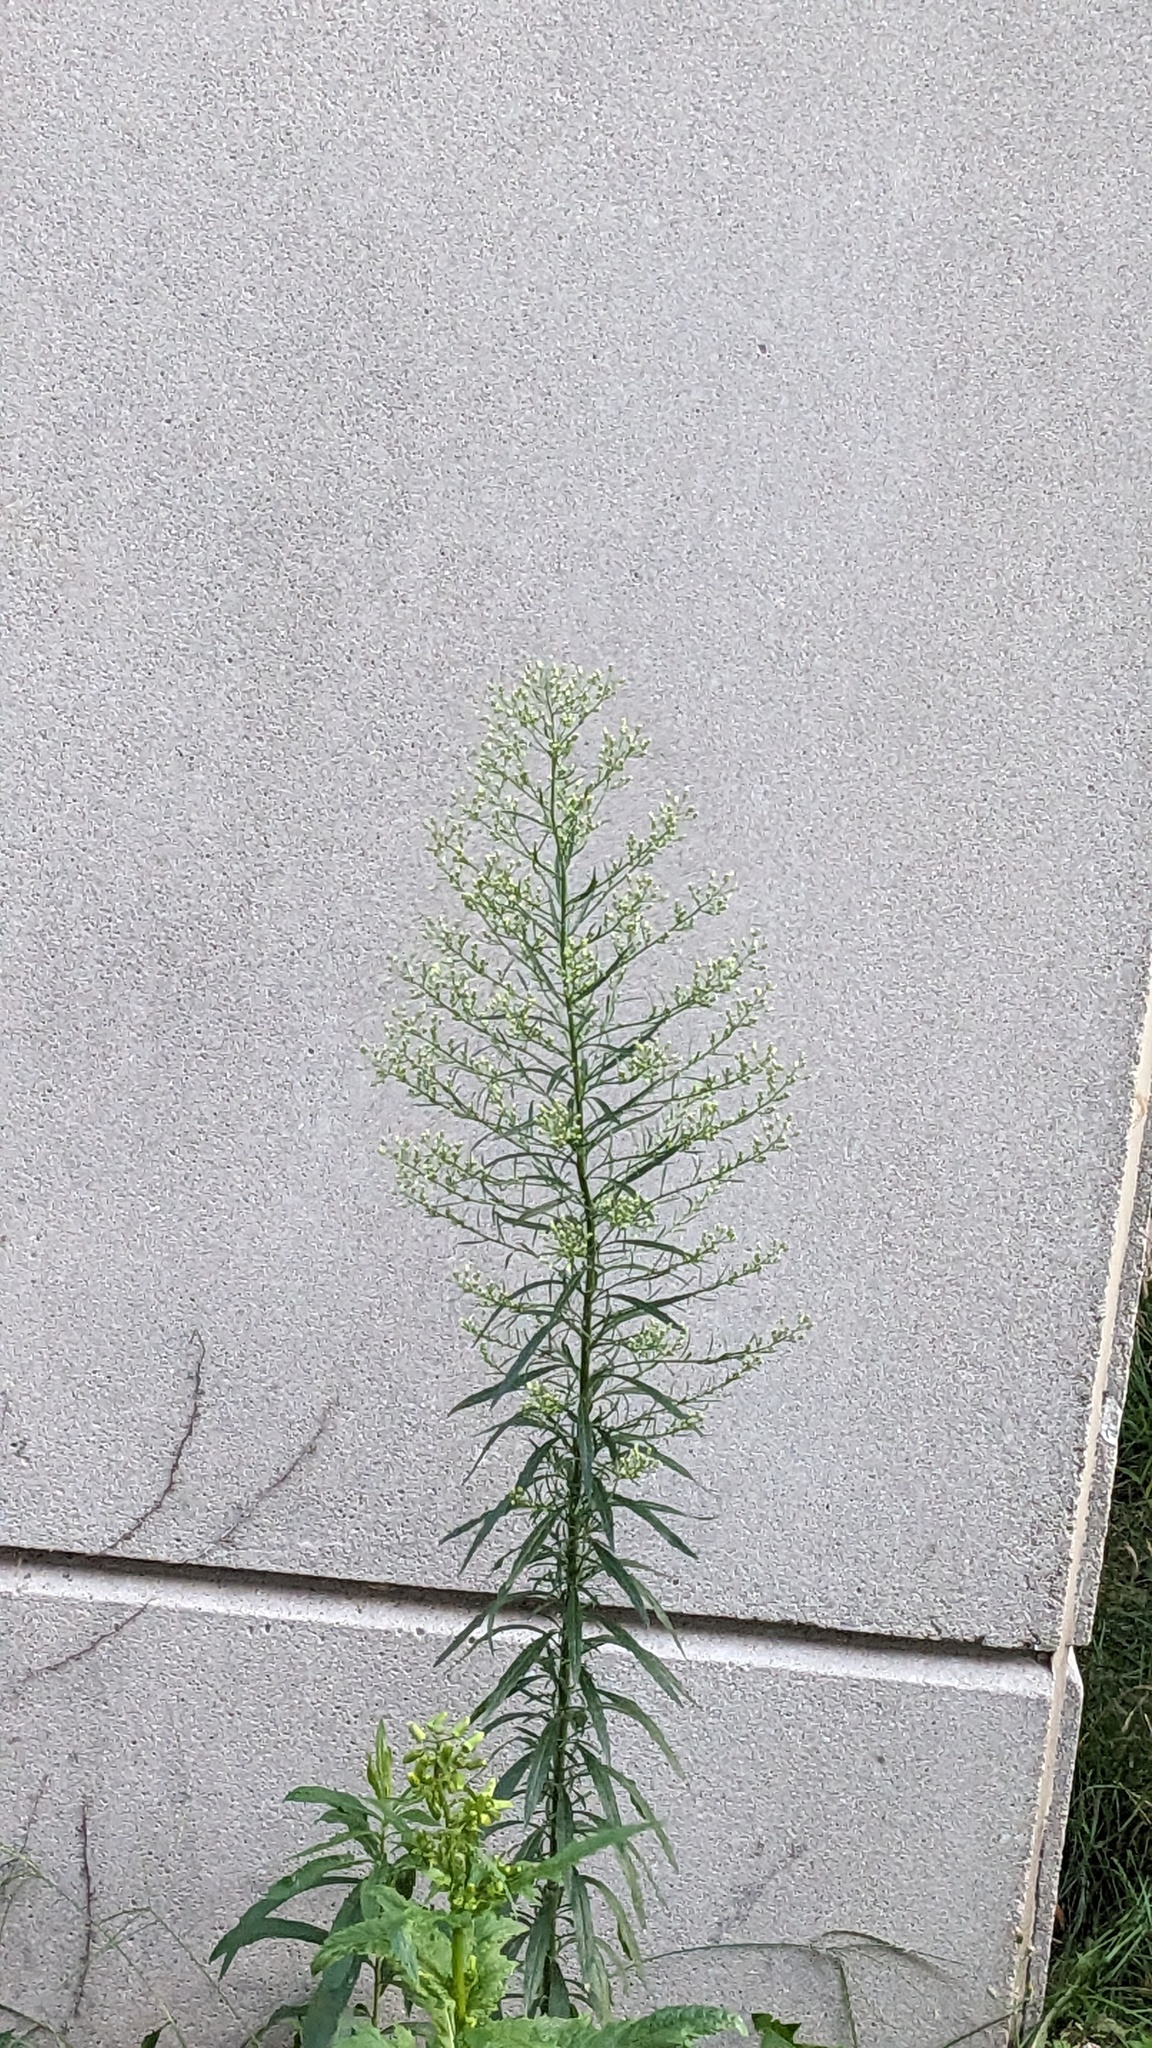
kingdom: Plantae
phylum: Tracheophyta
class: Magnoliopsida
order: Asterales
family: Asteraceae
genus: Erigeron
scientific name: Erigeron canadensis
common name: Canadian fleabane
